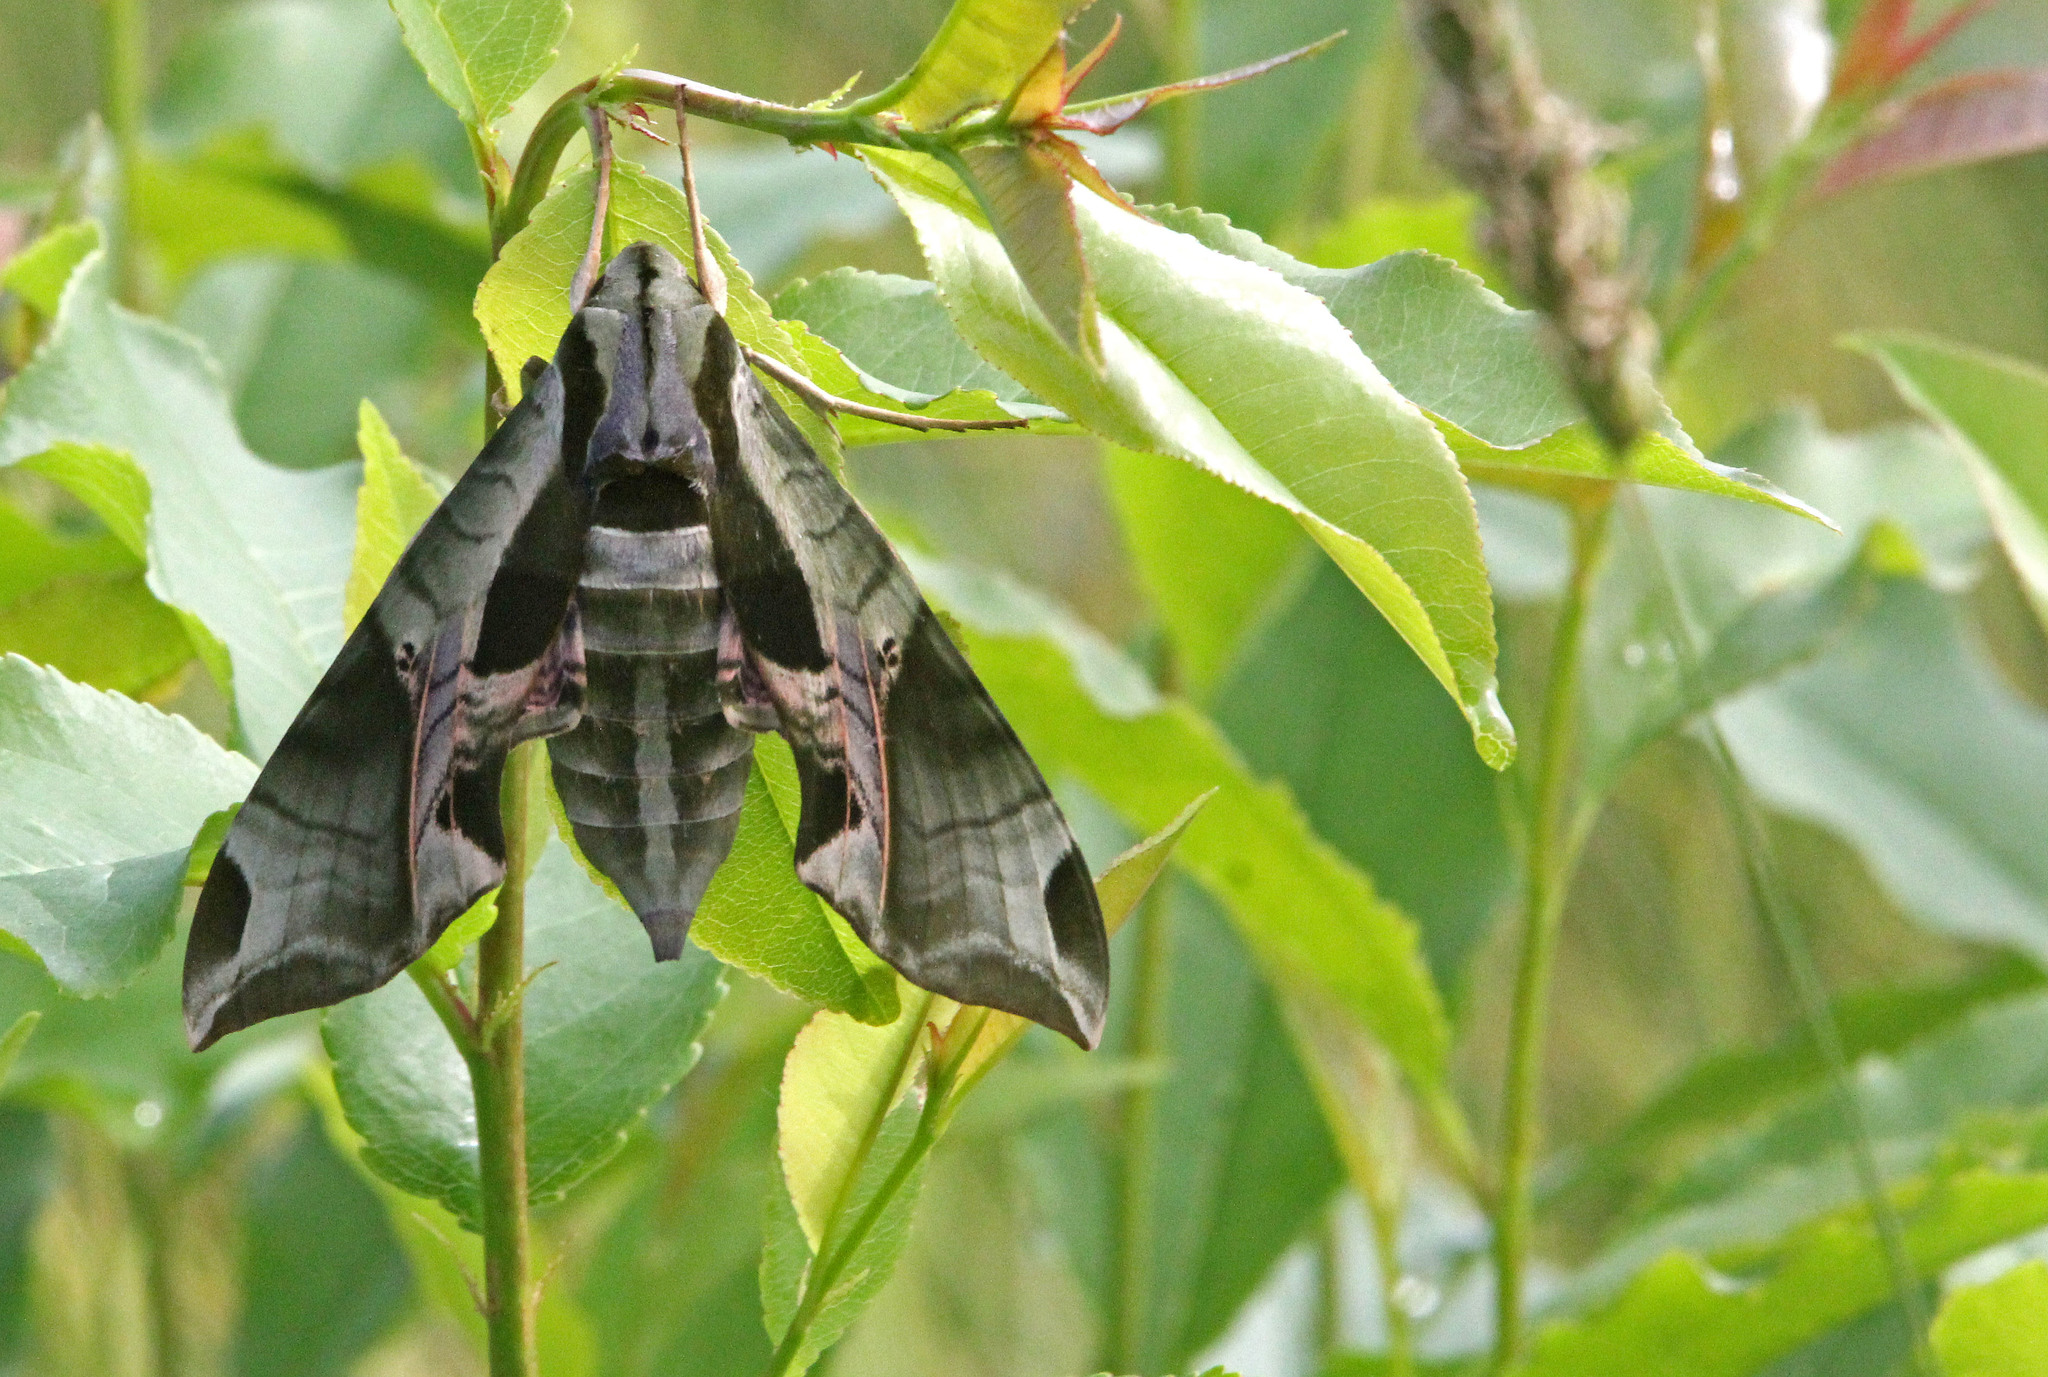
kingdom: Animalia
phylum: Arthropoda
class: Insecta
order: Lepidoptera
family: Sphingidae
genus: Eumorpha
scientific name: Eumorpha pandorus
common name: Pandora sphinx
